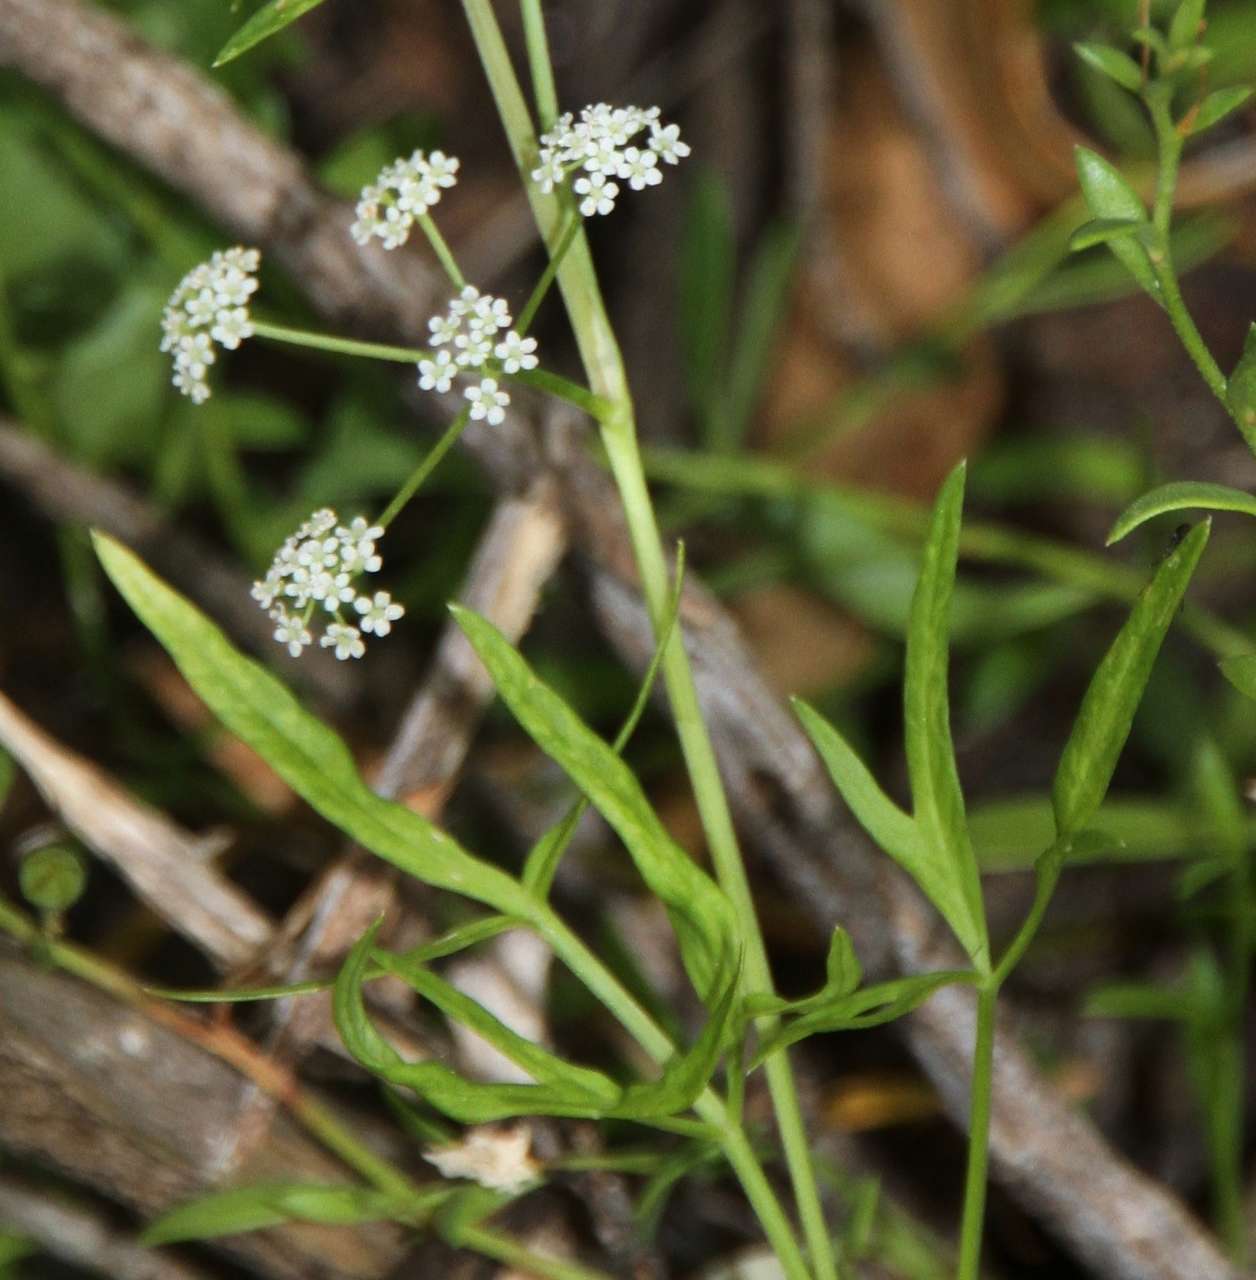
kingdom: Plantae
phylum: Tracheophyta
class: Magnoliopsida
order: Apiales
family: Apiaceae
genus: Apium
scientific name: Apium prostratum
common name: Prostrate marshwort
